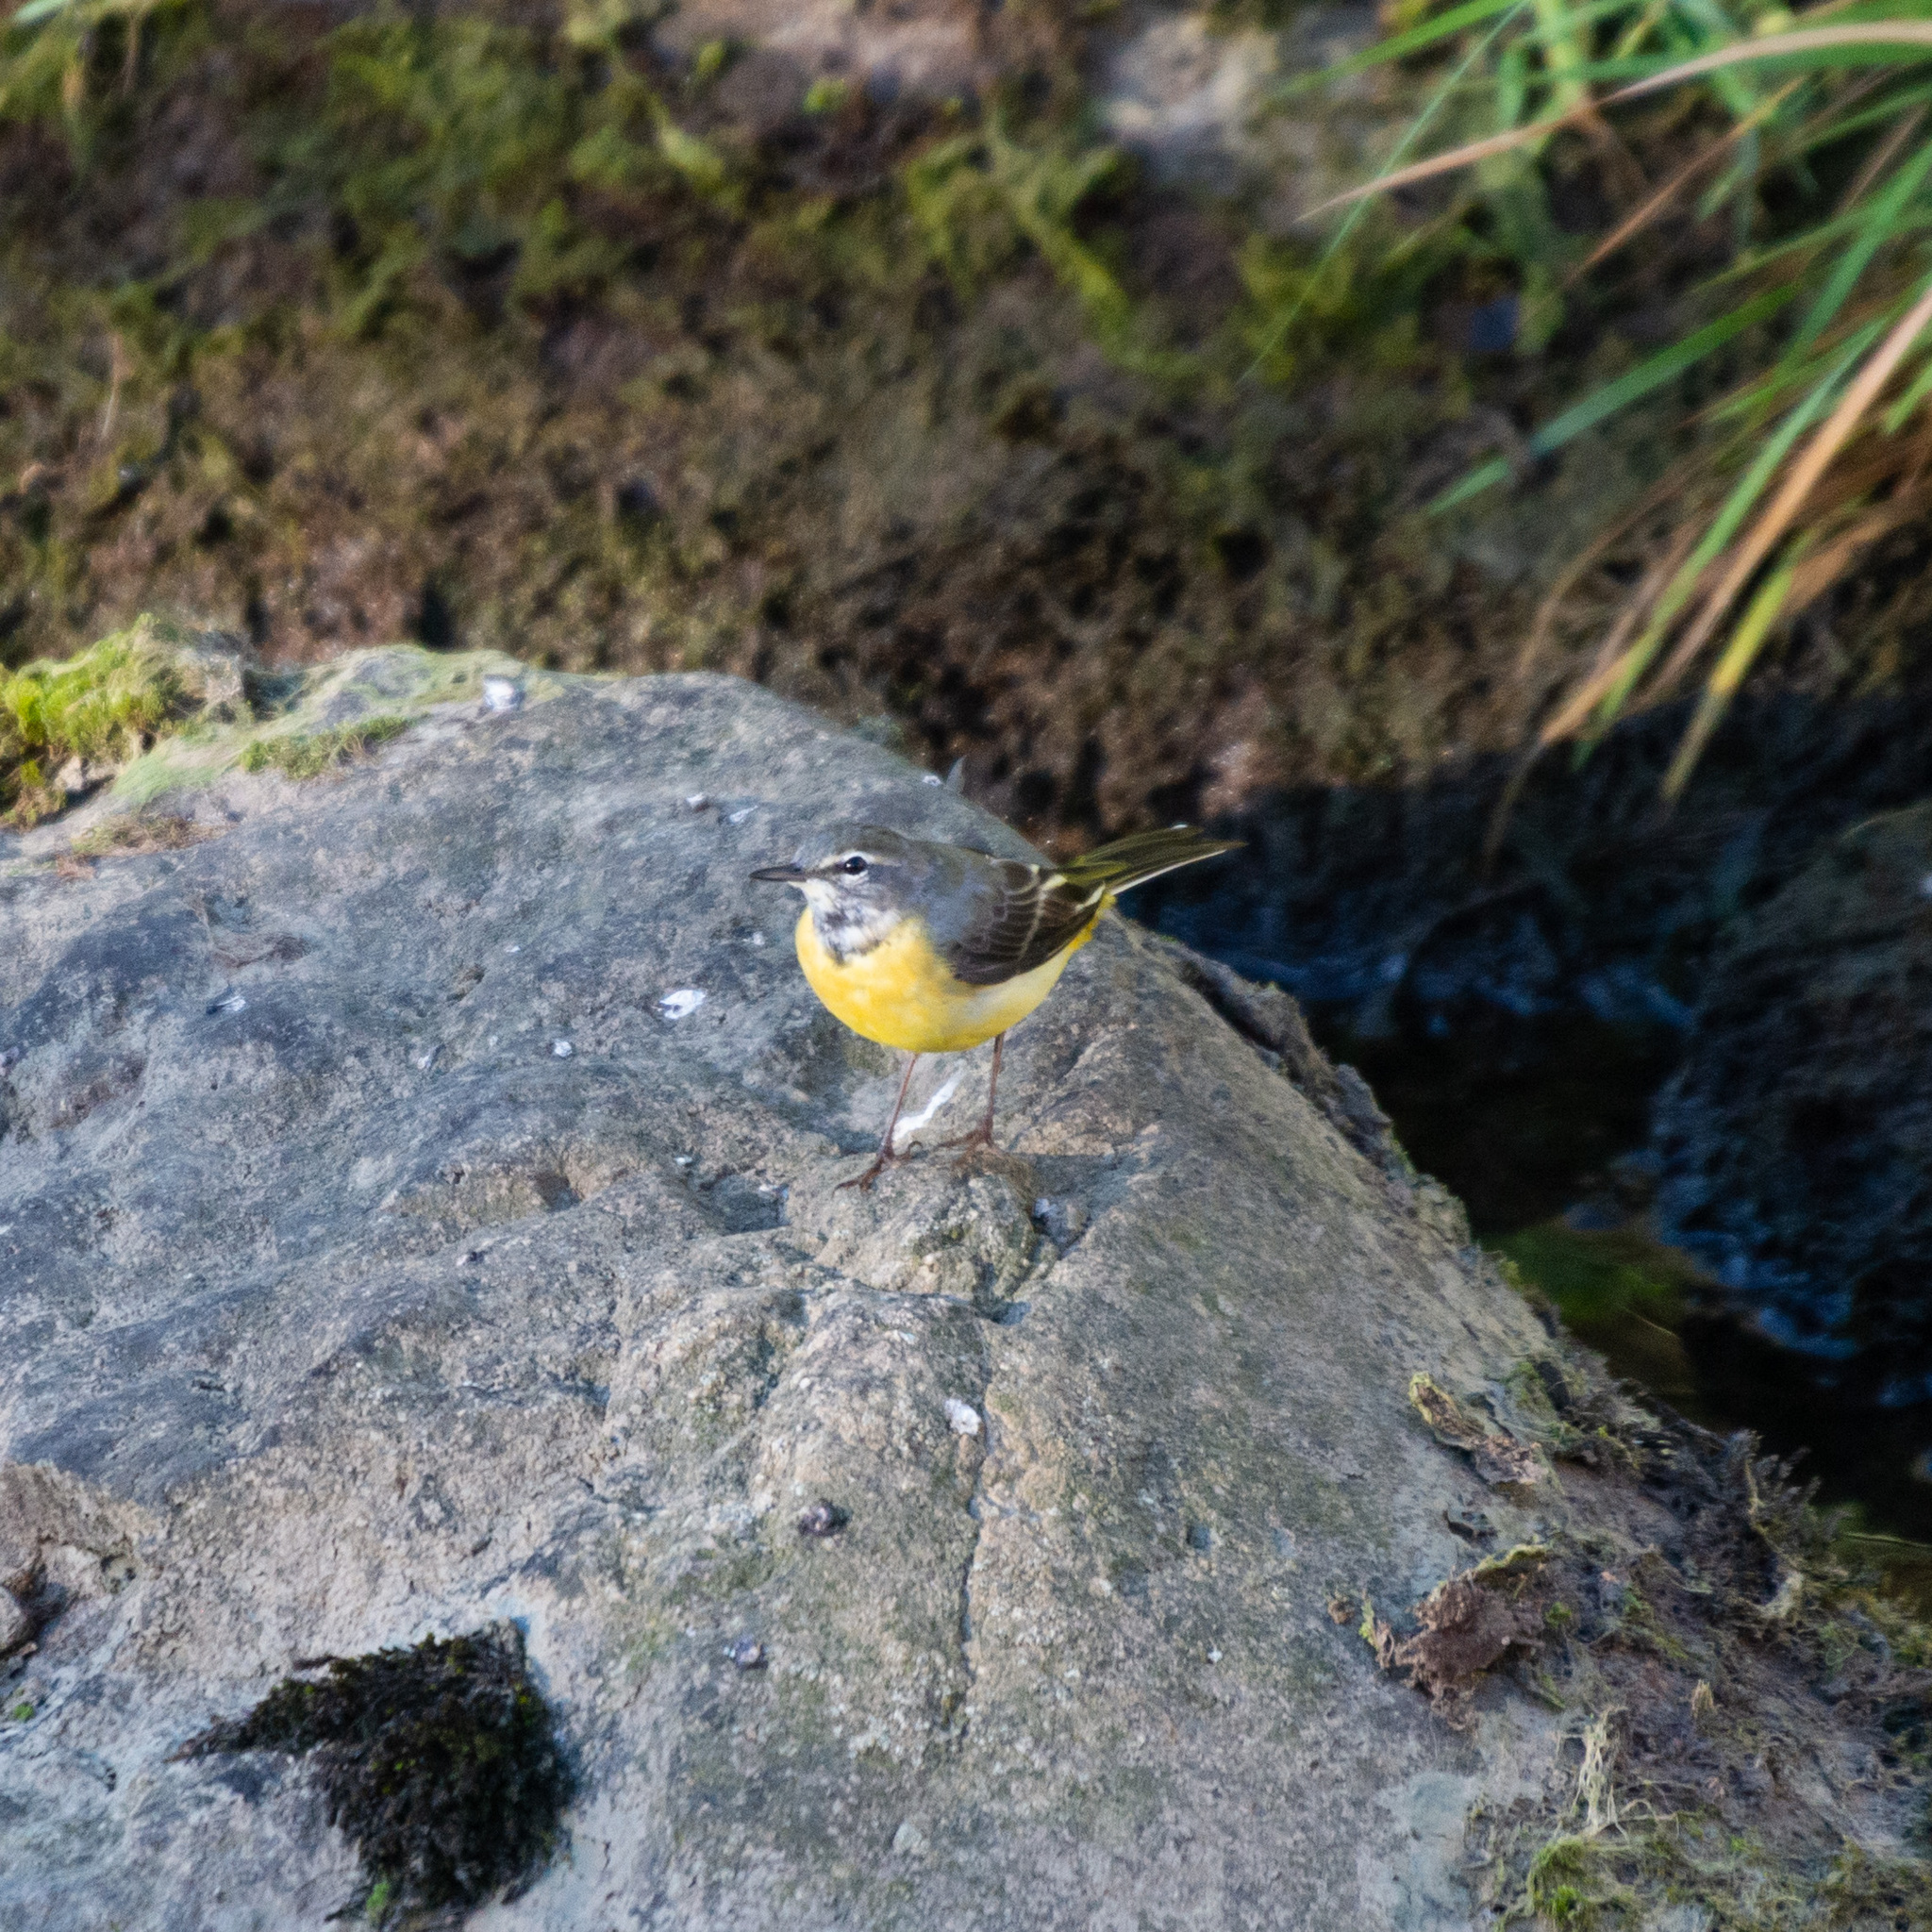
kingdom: Animalia
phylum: Chordata
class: Aves
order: Passeriformes
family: Motacillidae
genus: Motacilla
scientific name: Motacilla cinerea
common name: Grey wagtail
